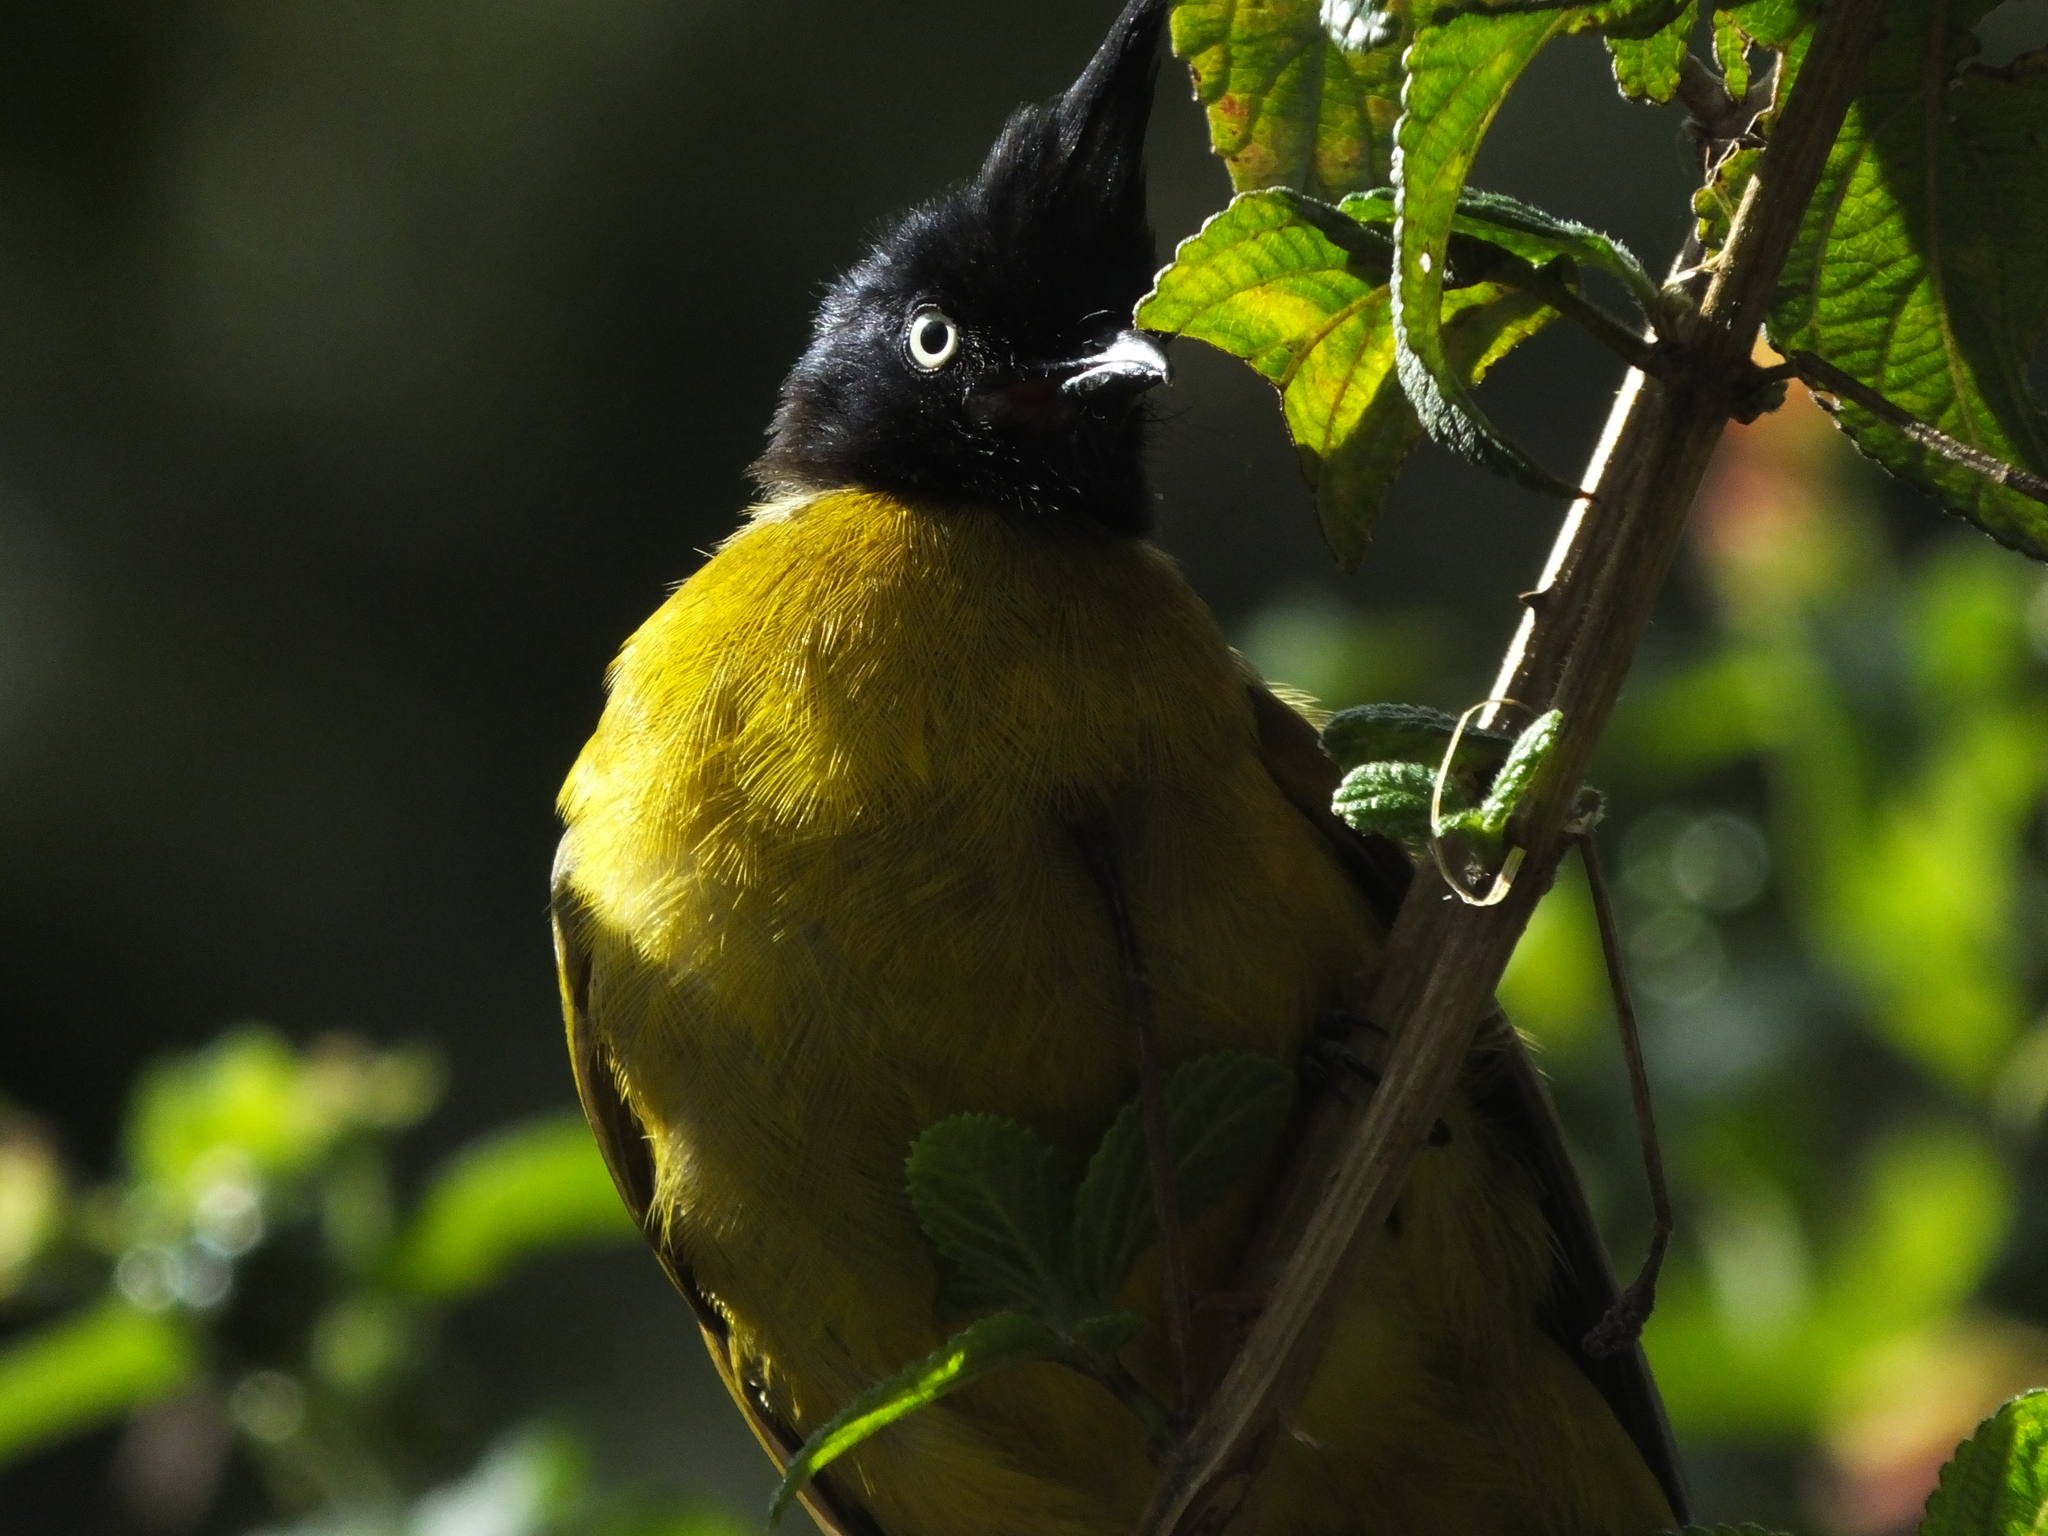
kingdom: Animalia
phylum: Chordata
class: Aves
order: Passeriformes
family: Pycnonotidae
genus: Pycnonotus
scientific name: Pycnonotus flaviventris
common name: Black-crested bulbul
